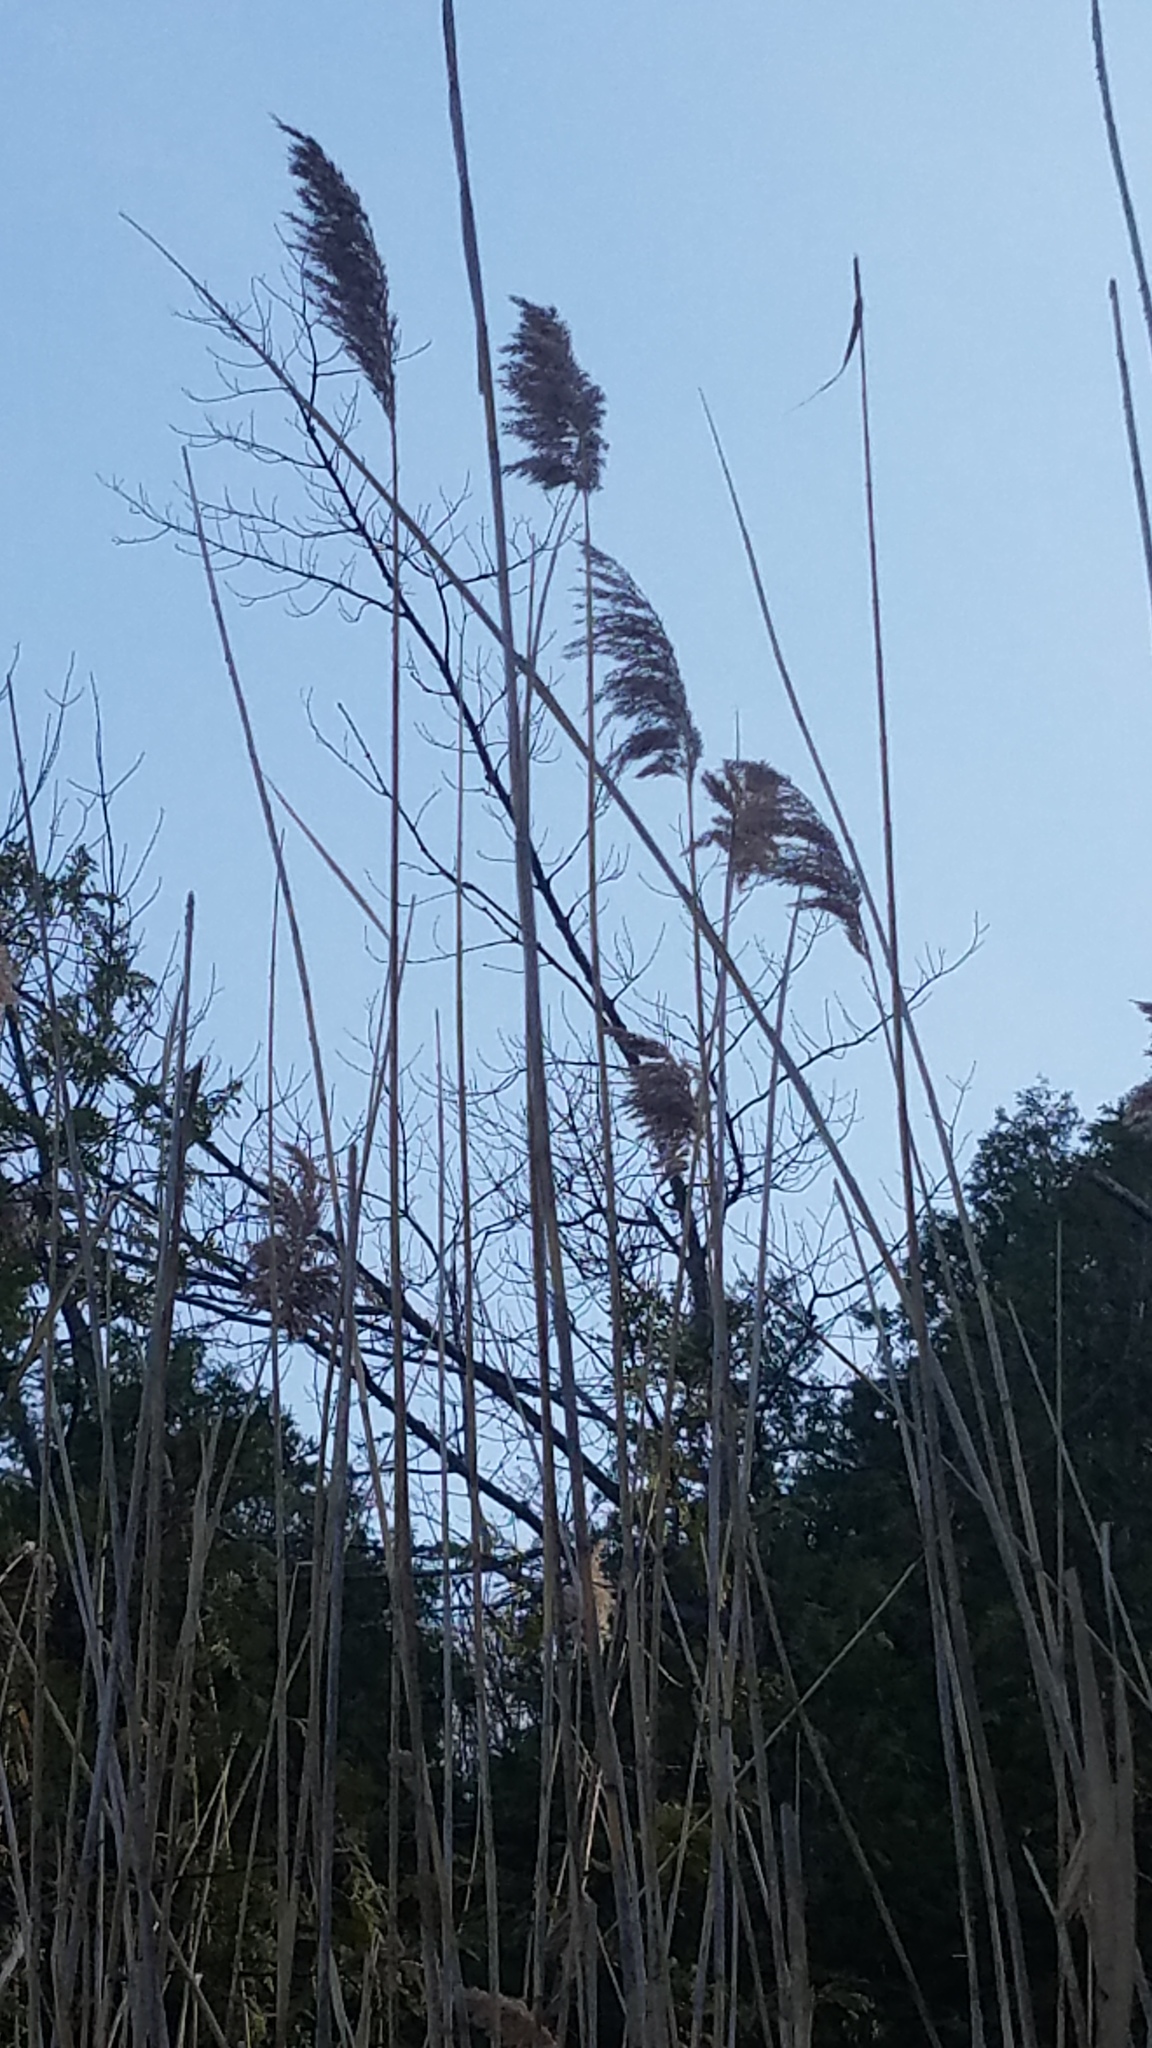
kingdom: Plantae
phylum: Tracheophyta
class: Liliopsida
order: Poales
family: Poaceae
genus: Phragmites
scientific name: Phragmites australis
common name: Common reed
